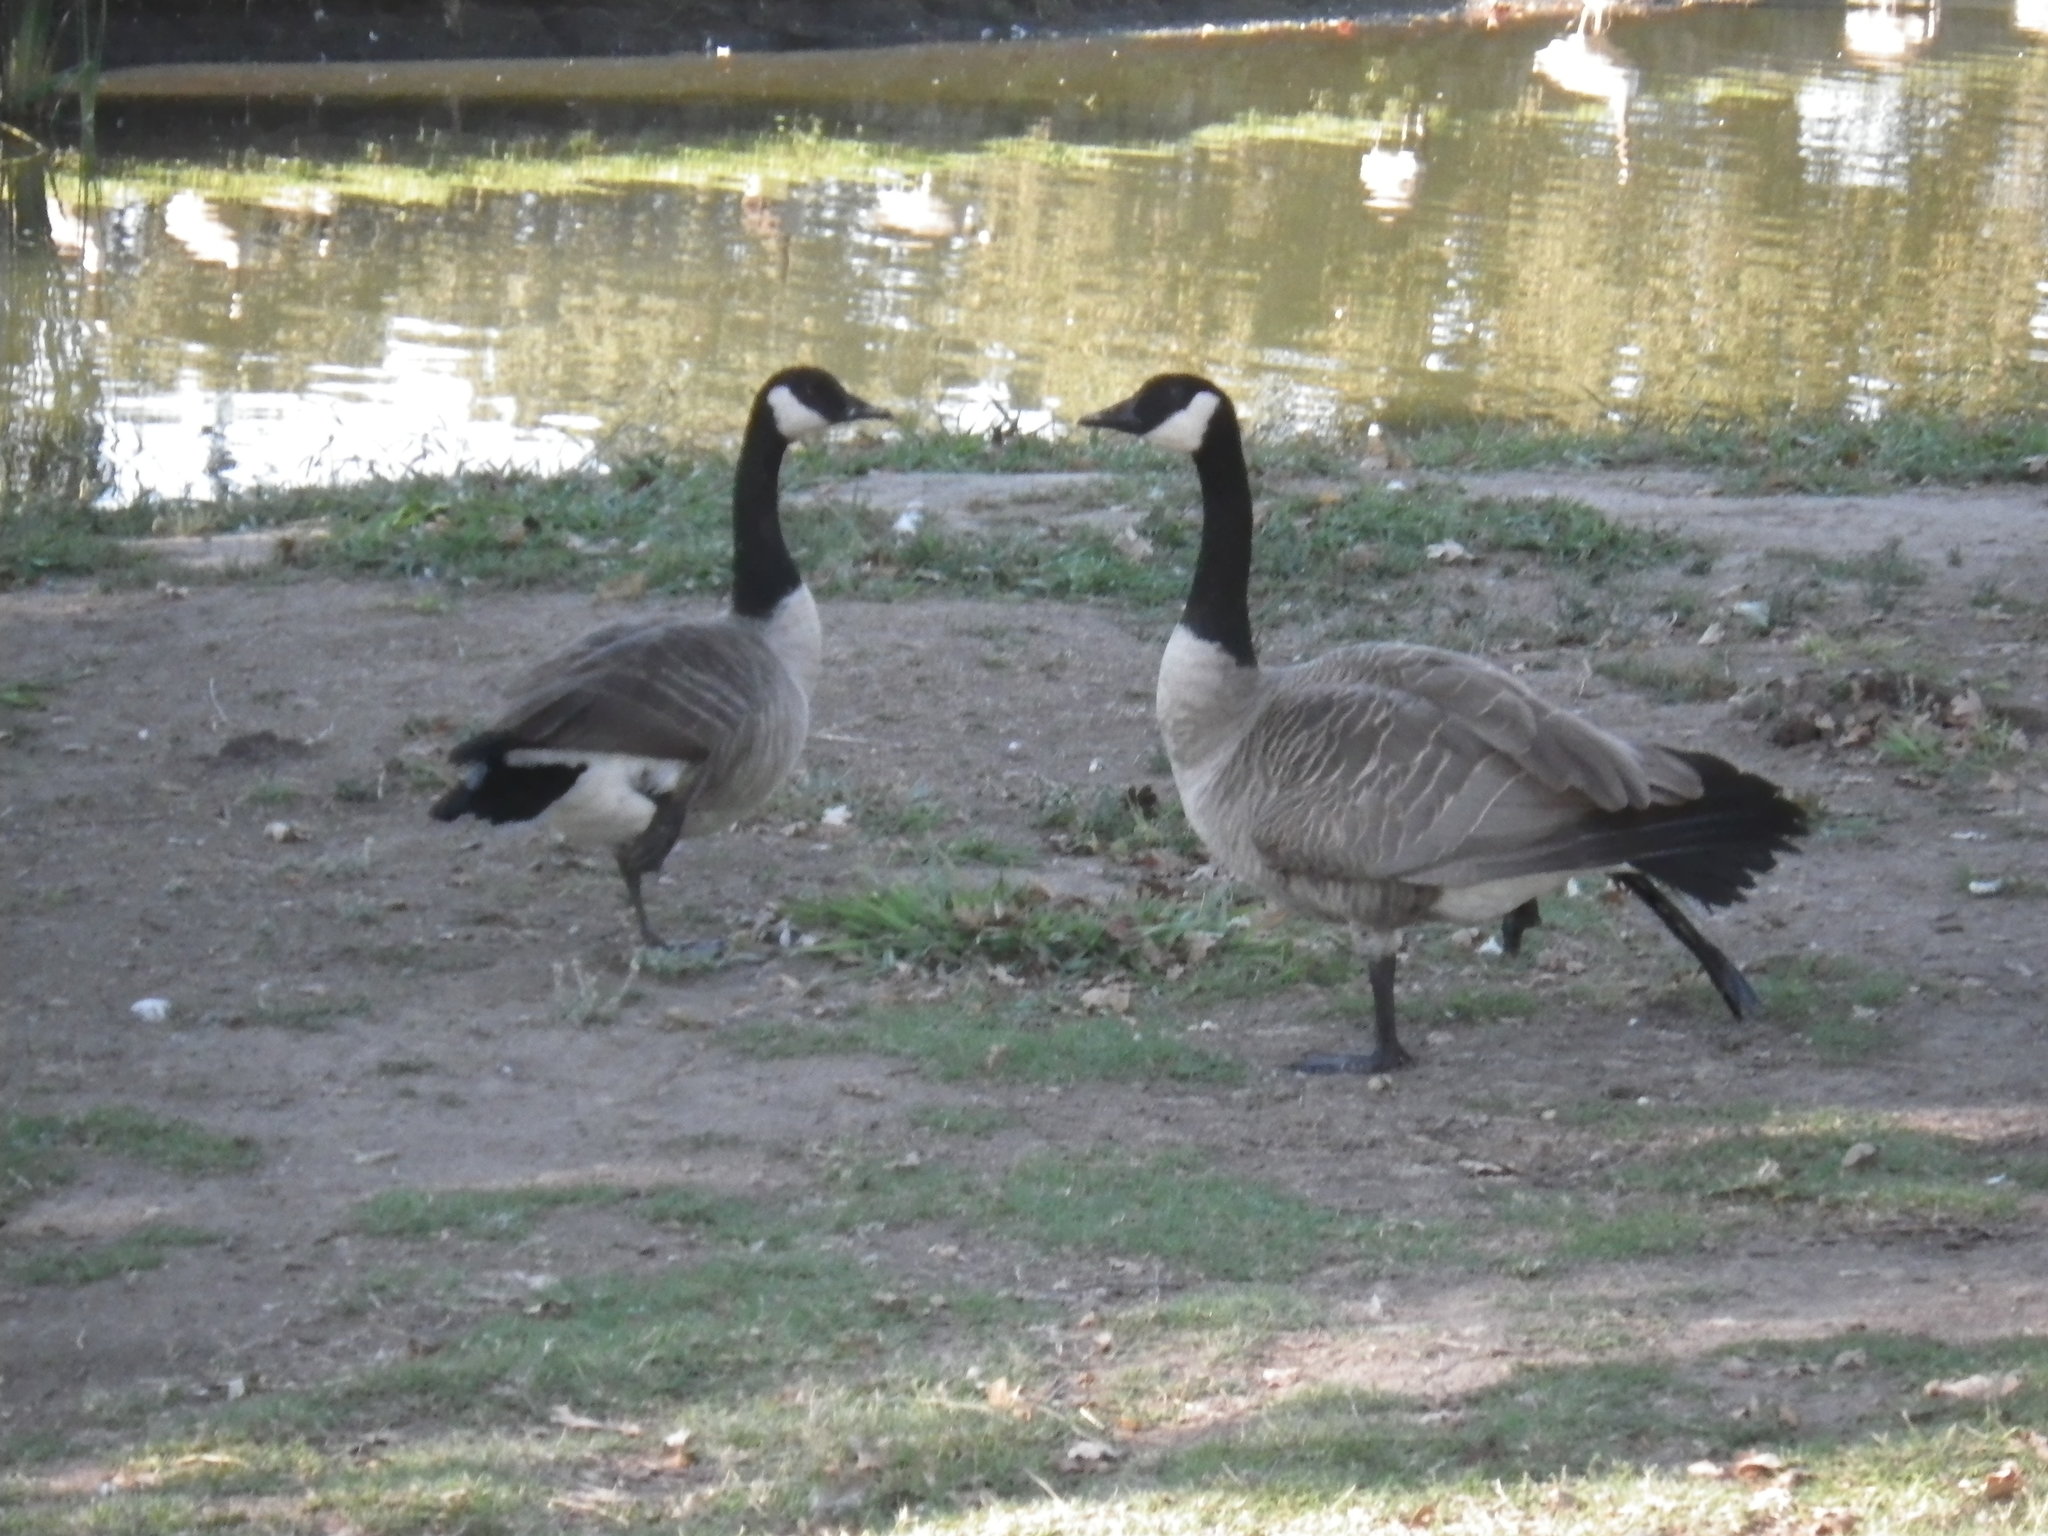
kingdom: Animalia
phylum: Chordata
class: Aves
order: Anseriformes
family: Anatidae
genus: Branta
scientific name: Branta canadensis
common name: Canada goose
